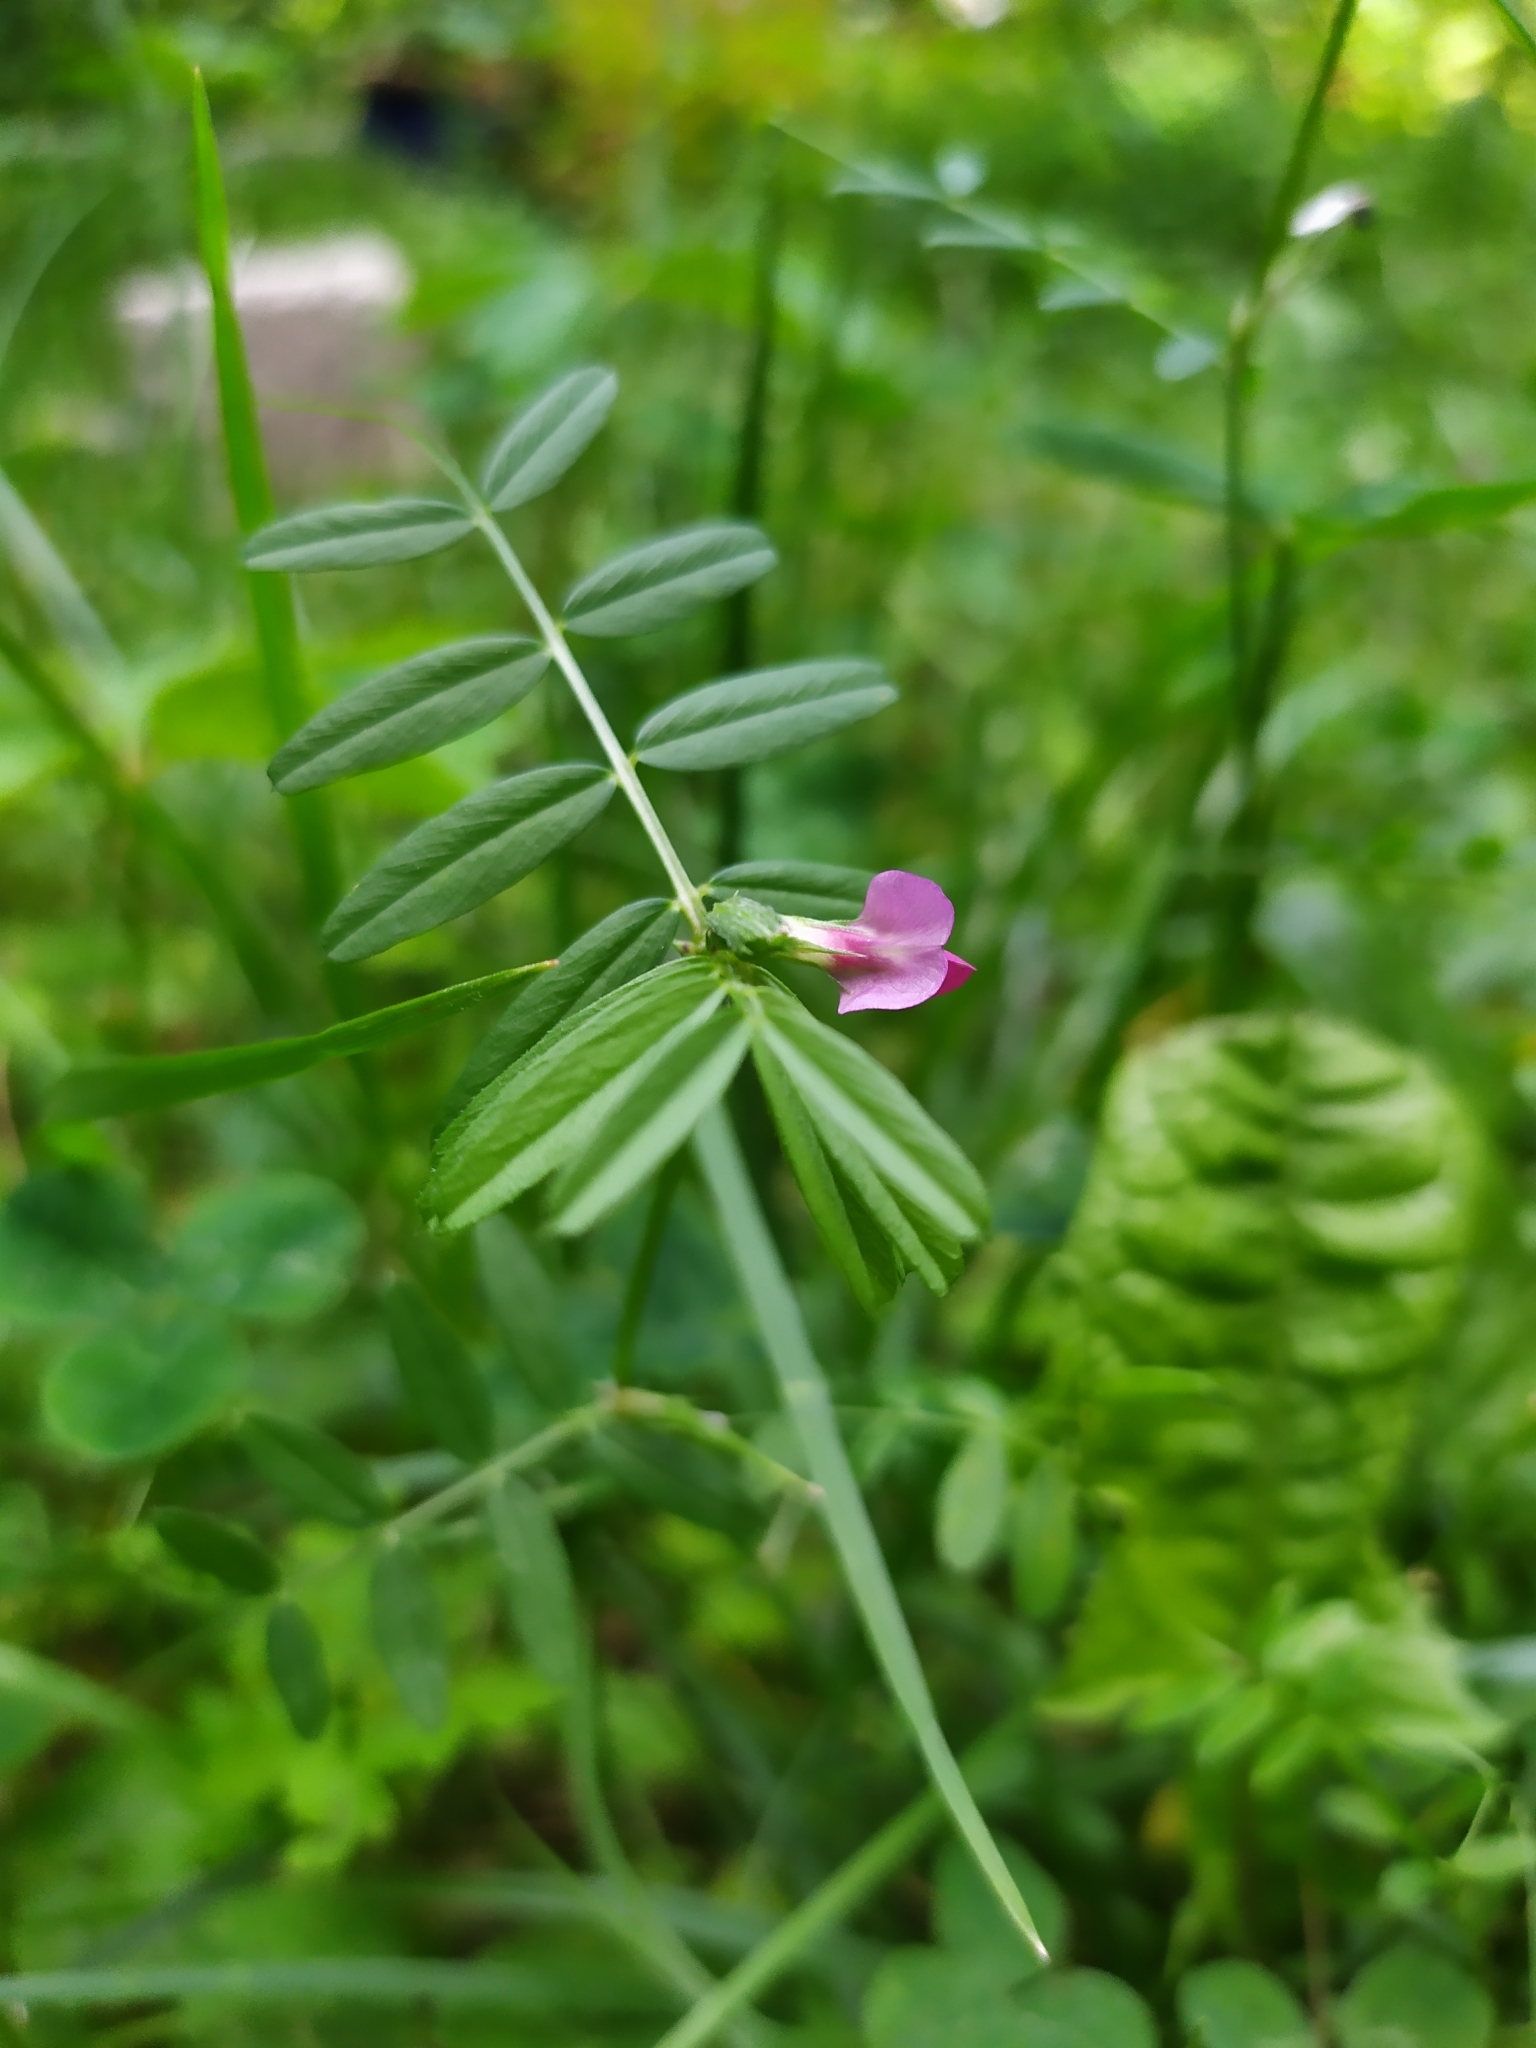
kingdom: Plantae
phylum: Tracheophyta
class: Magnoliopsida
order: Fabales
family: Fabaceae
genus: Vicia
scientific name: Vicia sativa
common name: Garden vetch
